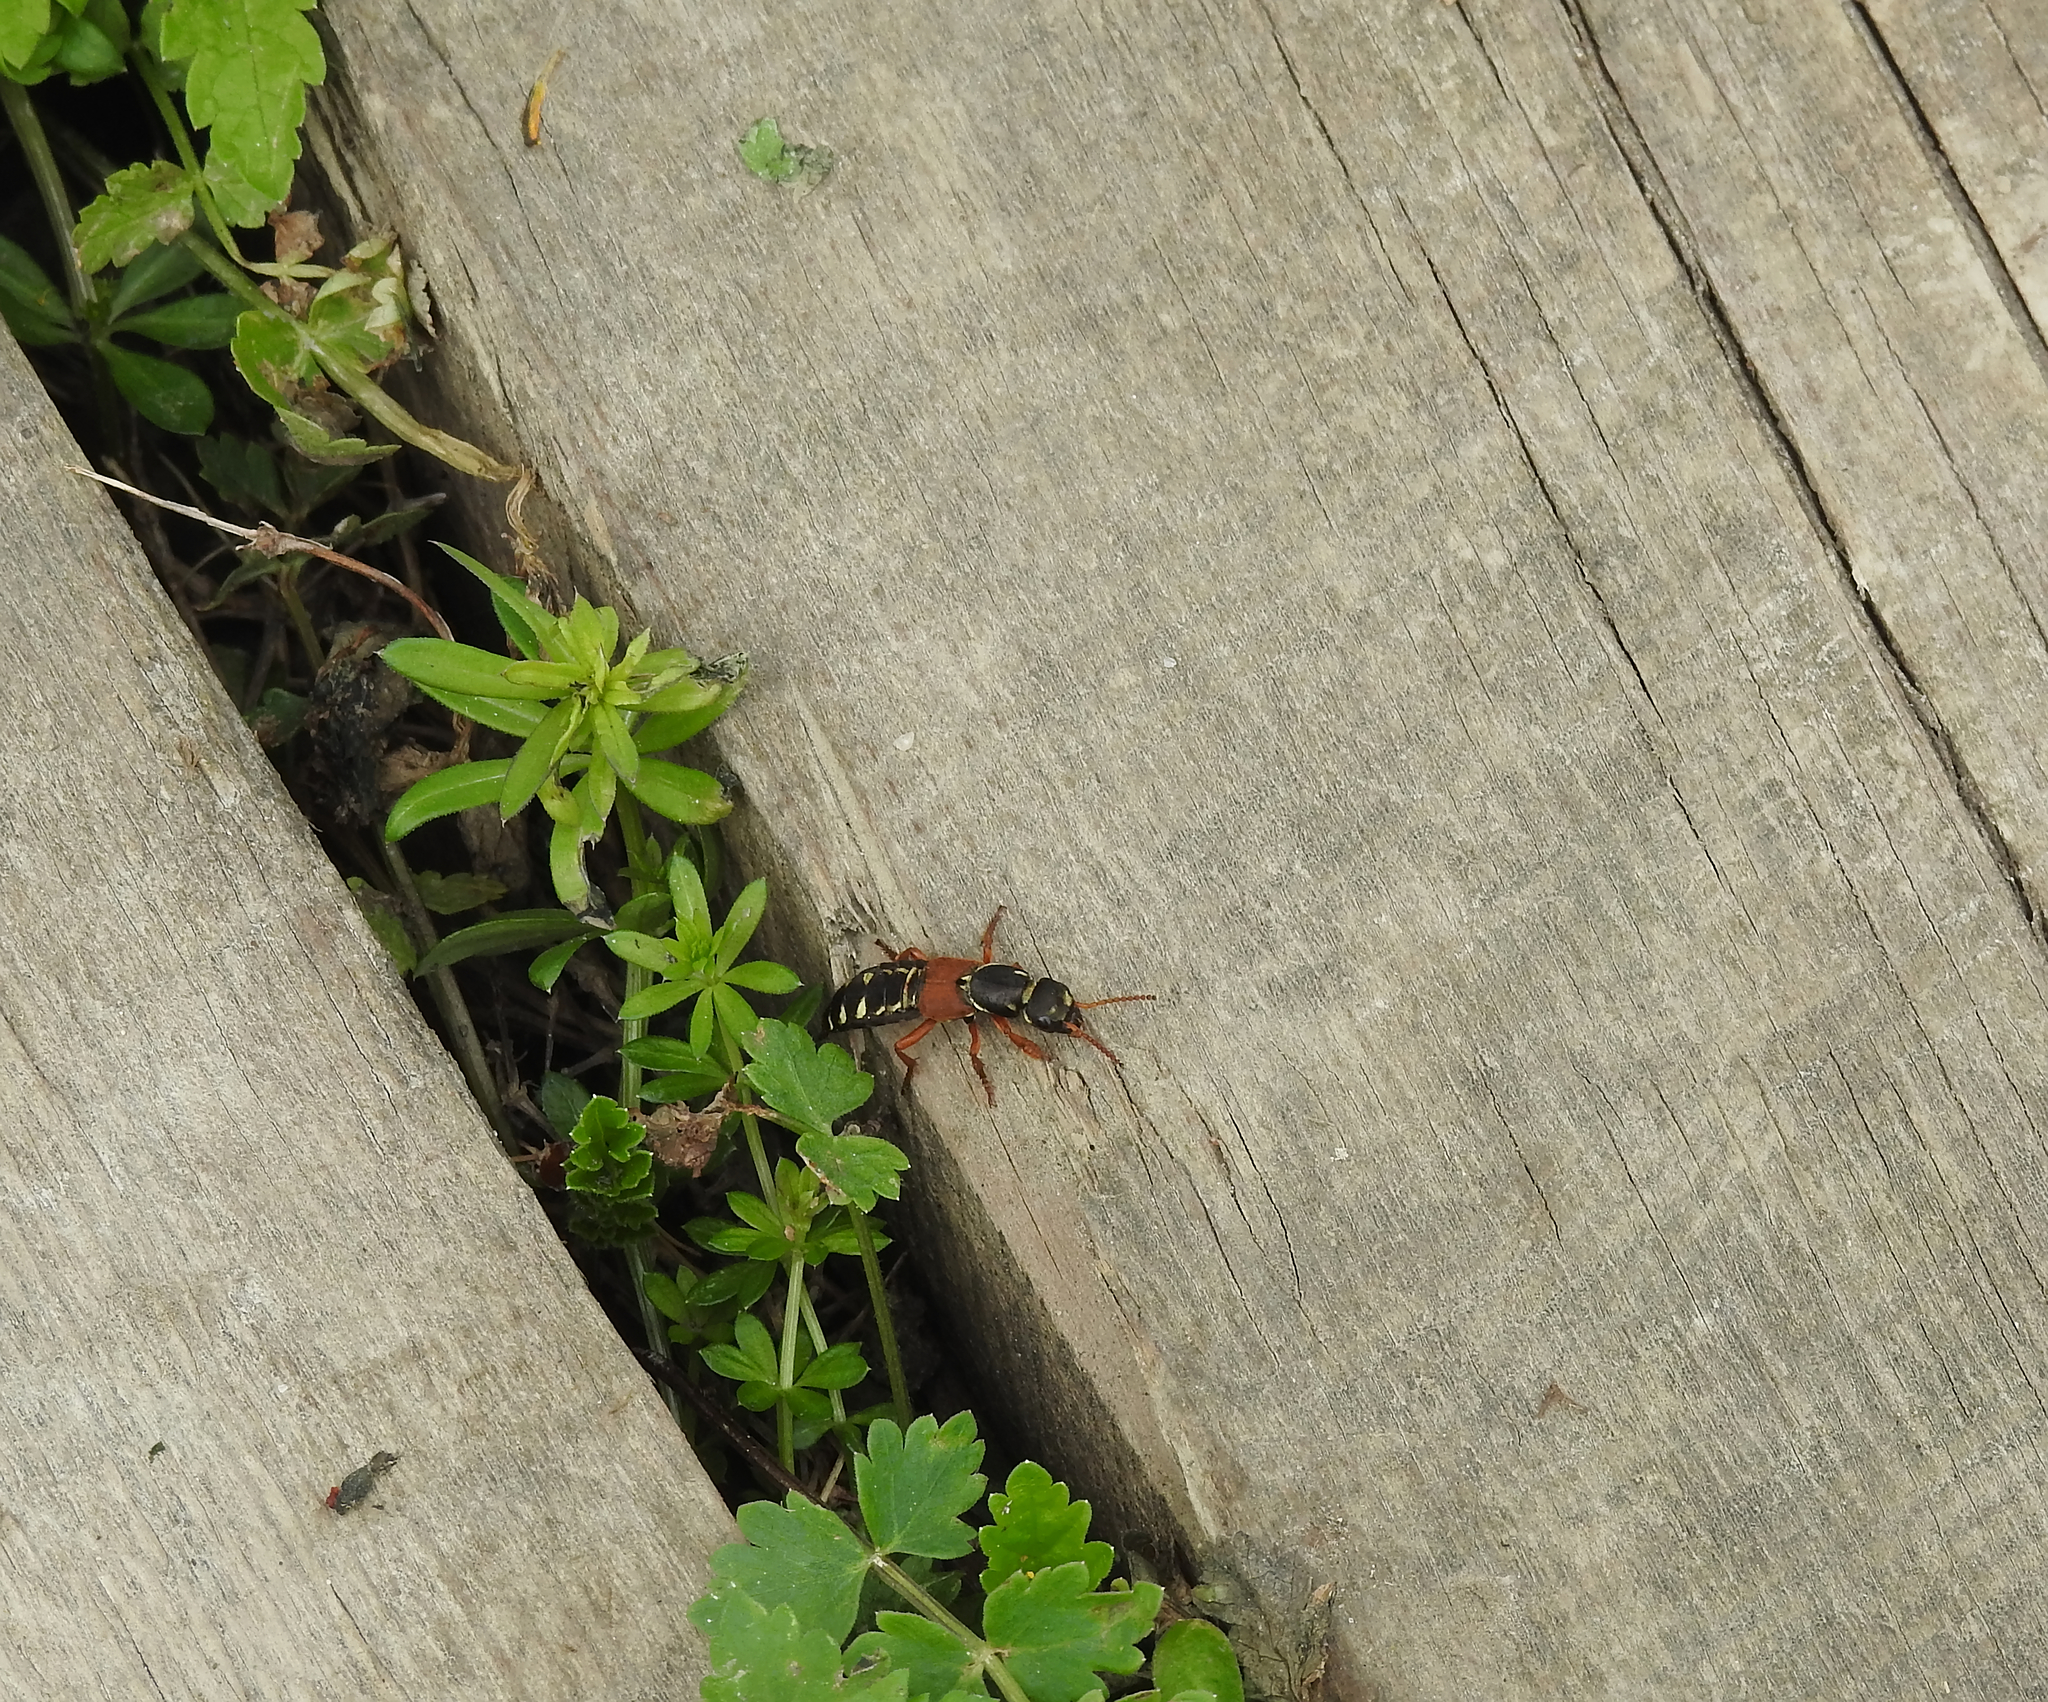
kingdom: Animalia
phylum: Arthropoda
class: Insecta
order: Coleoptera
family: Staphylinidae
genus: Staphylinus
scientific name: Staphylinus caesareus
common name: Staph beetle
